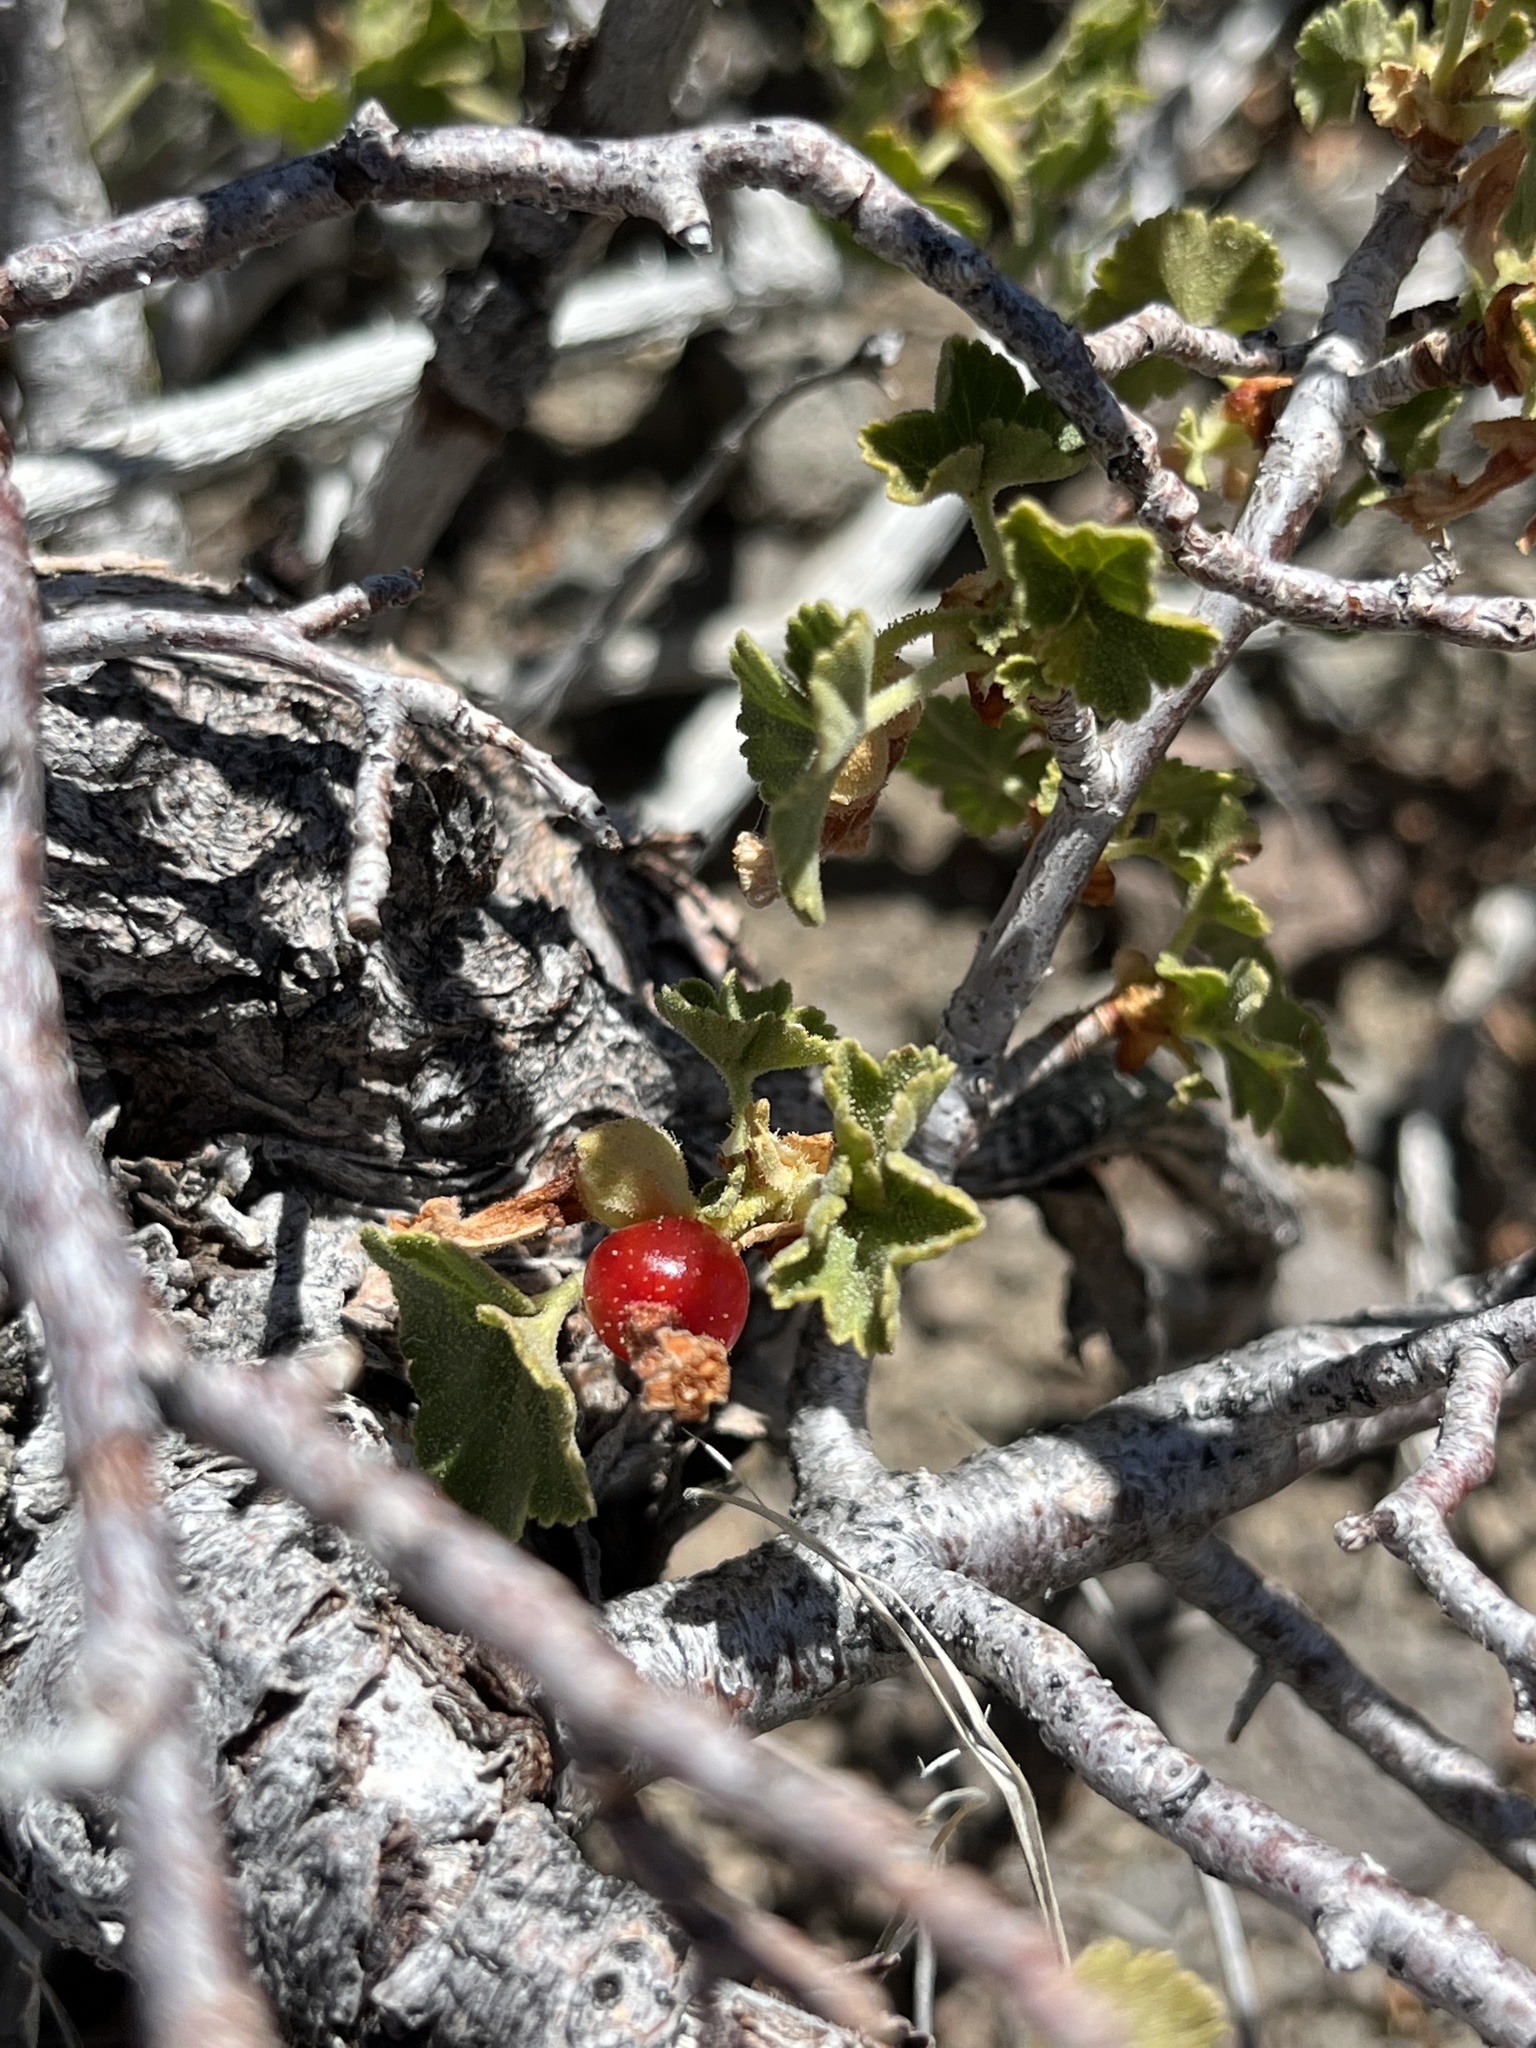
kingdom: Plantae
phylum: Tracheophyta
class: Magnoliopsida
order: Saxifragales
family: Grossulariaceae
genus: Ribes
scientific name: Ribes cereum
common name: Wax currant
